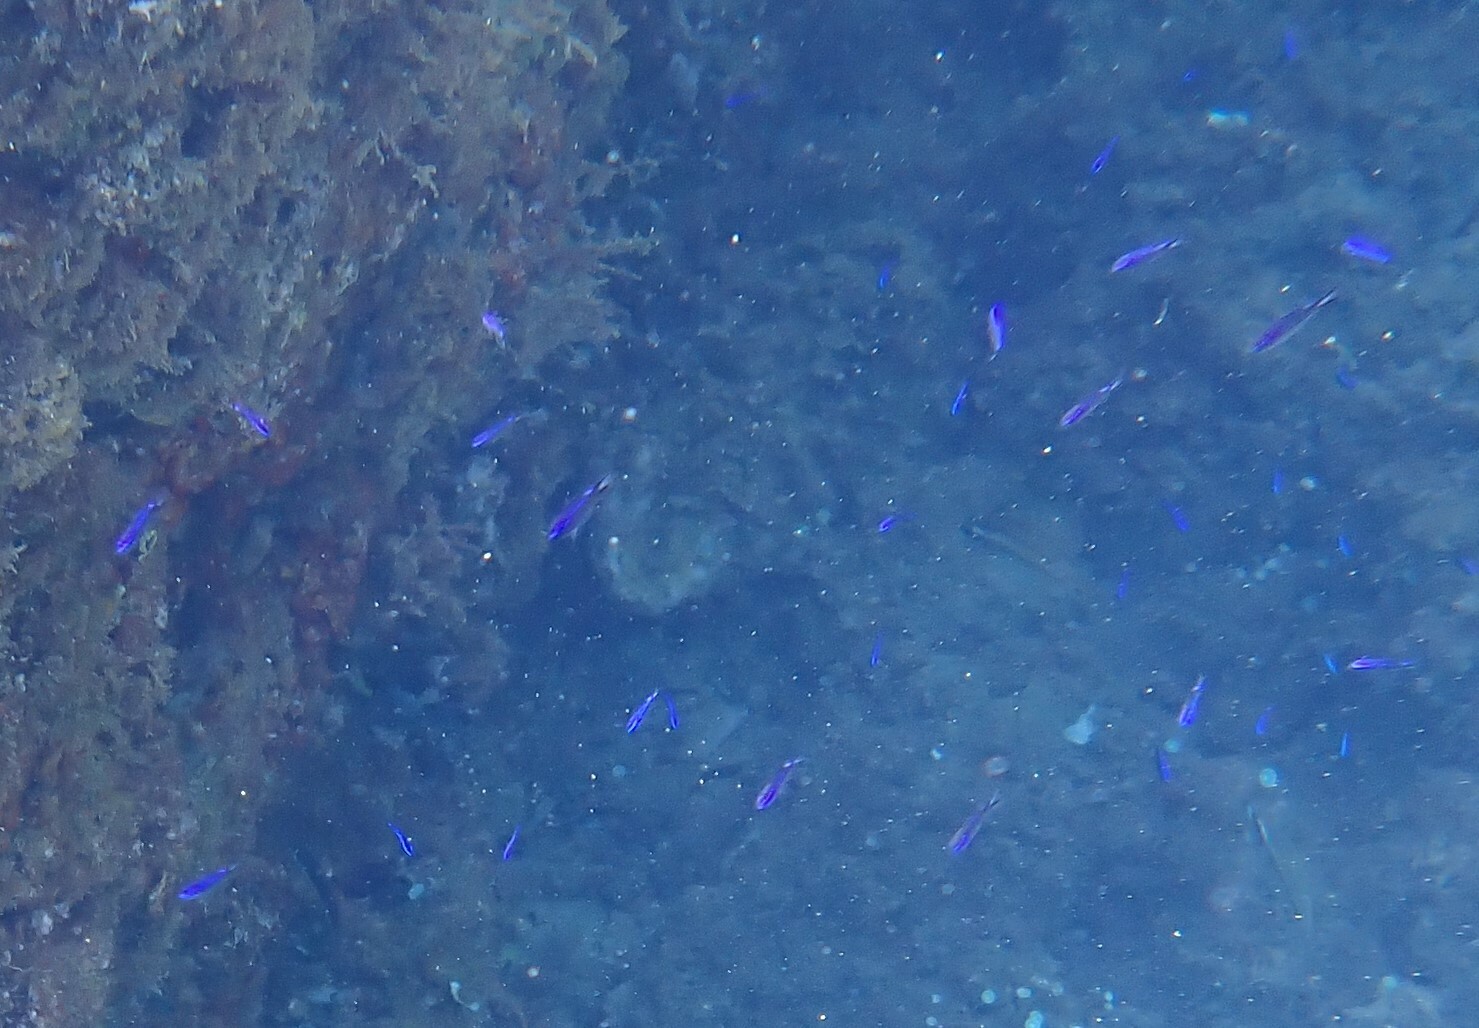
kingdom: Animalia
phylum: Chordata
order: Perciformes
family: Pomacentridae
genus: Chromis
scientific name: Chromis chromis
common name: Damselfish
